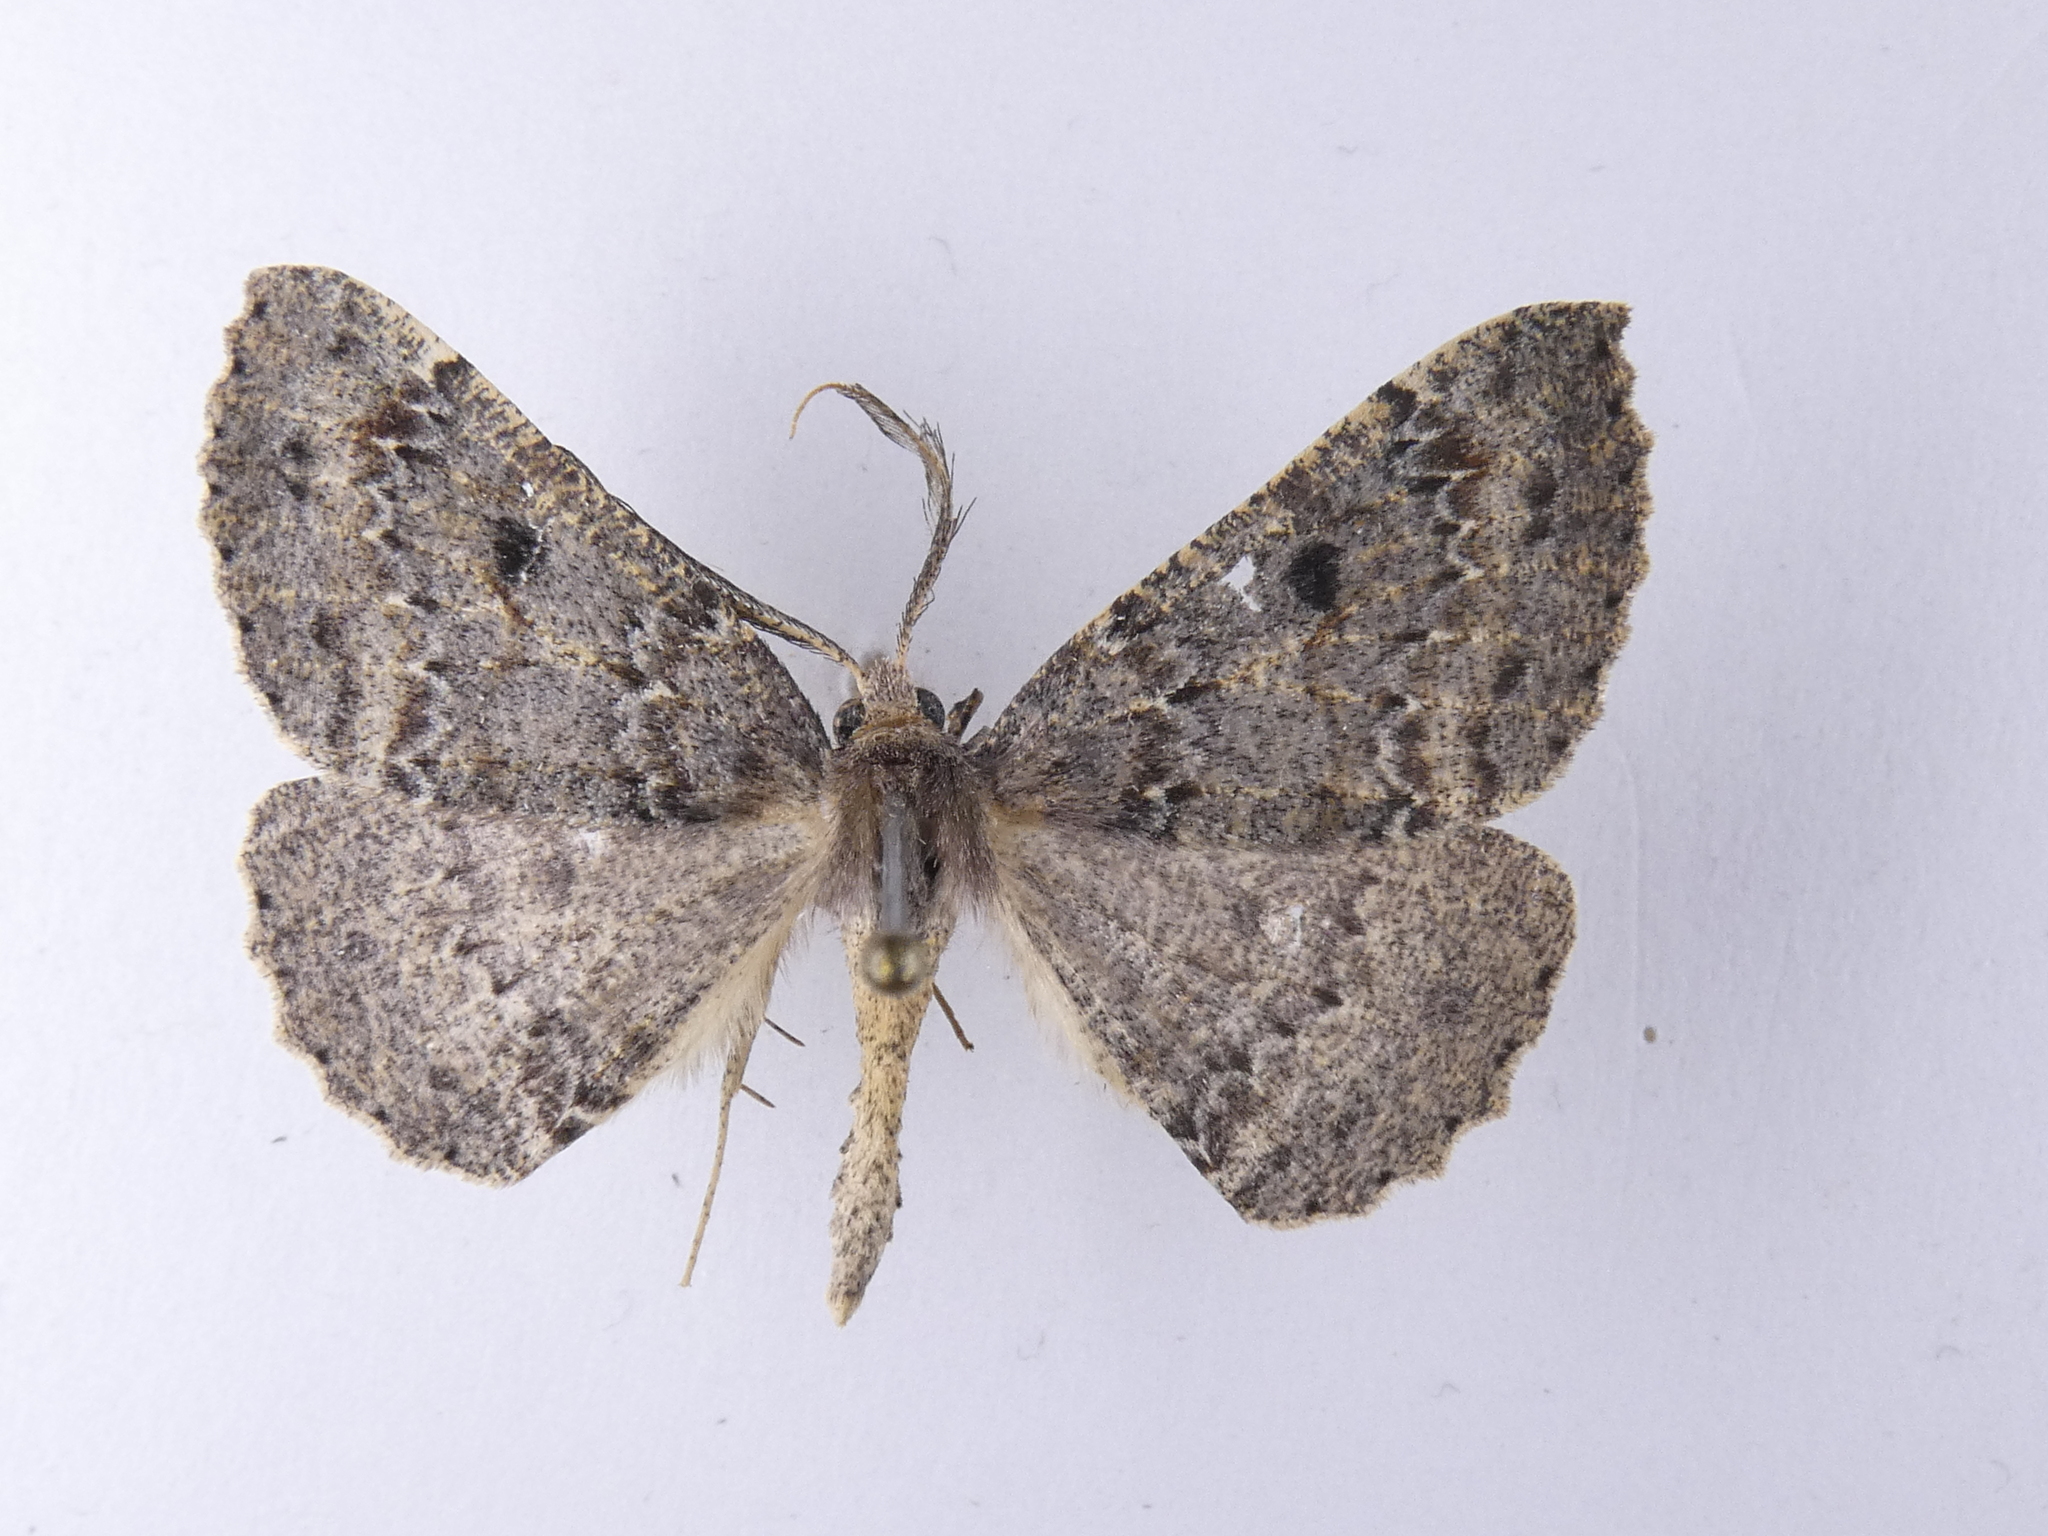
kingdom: Animalia
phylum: Arthropoda
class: Insecta
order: Lepidoptera
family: Geometridae
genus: Cleora
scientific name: Cleora scriptaria
